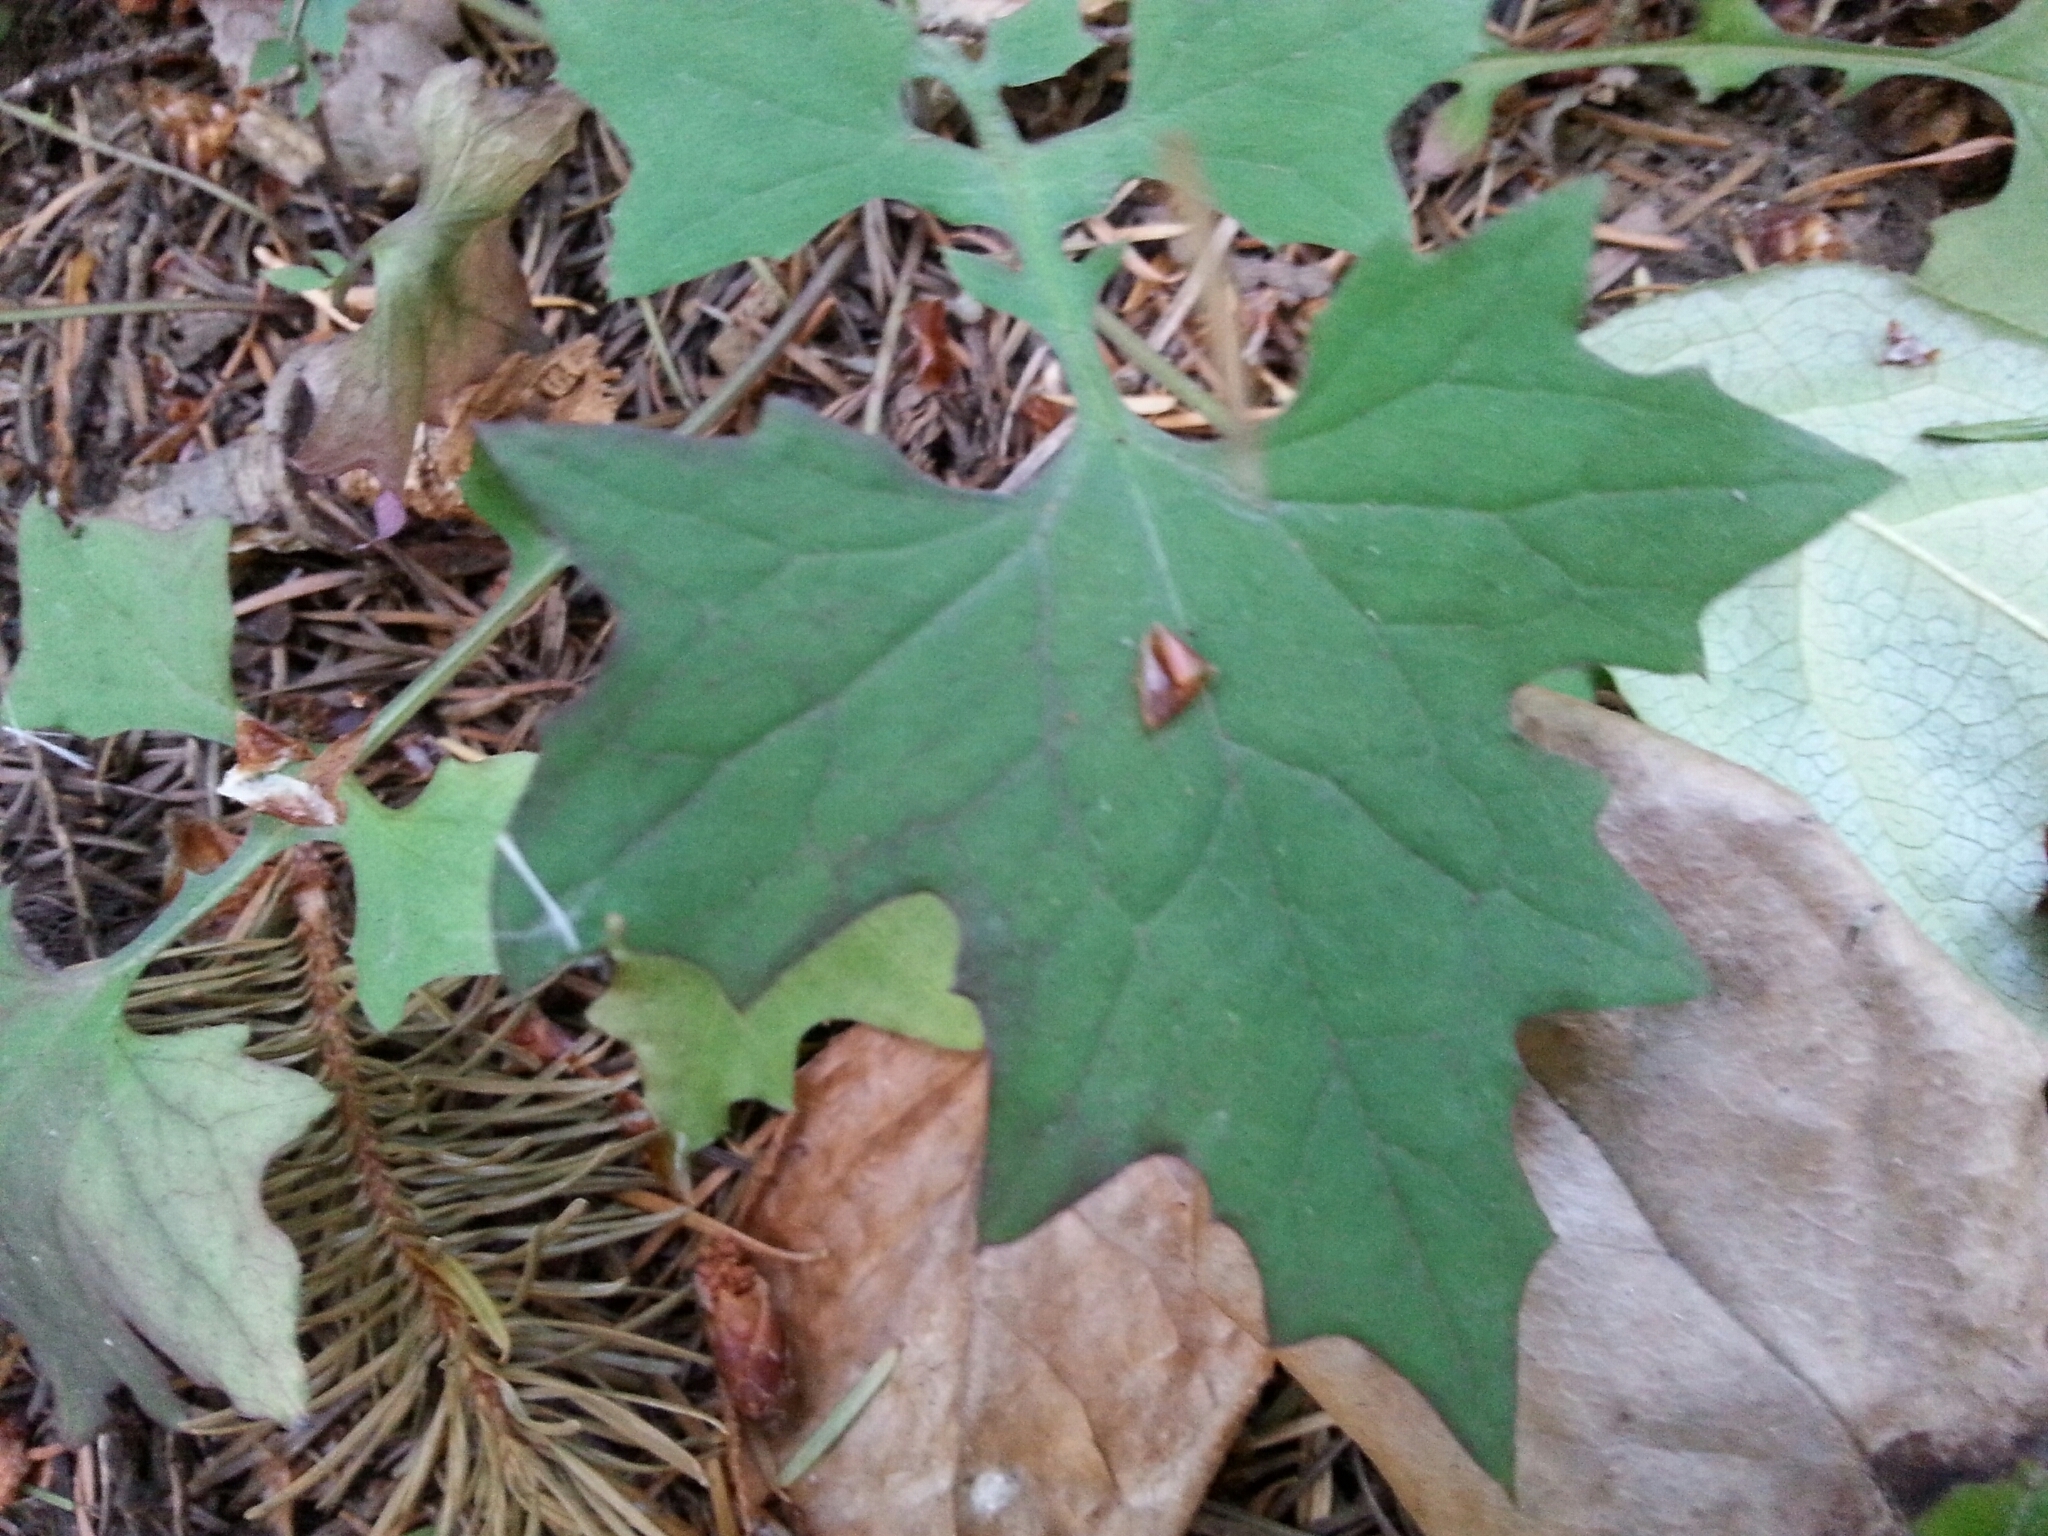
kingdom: Plantae
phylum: Tracheophyta
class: Magnoliopsida
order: Asterales
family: Asteraceae
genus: Mycelis
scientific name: Mycelis muralis
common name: Wall lettuce
